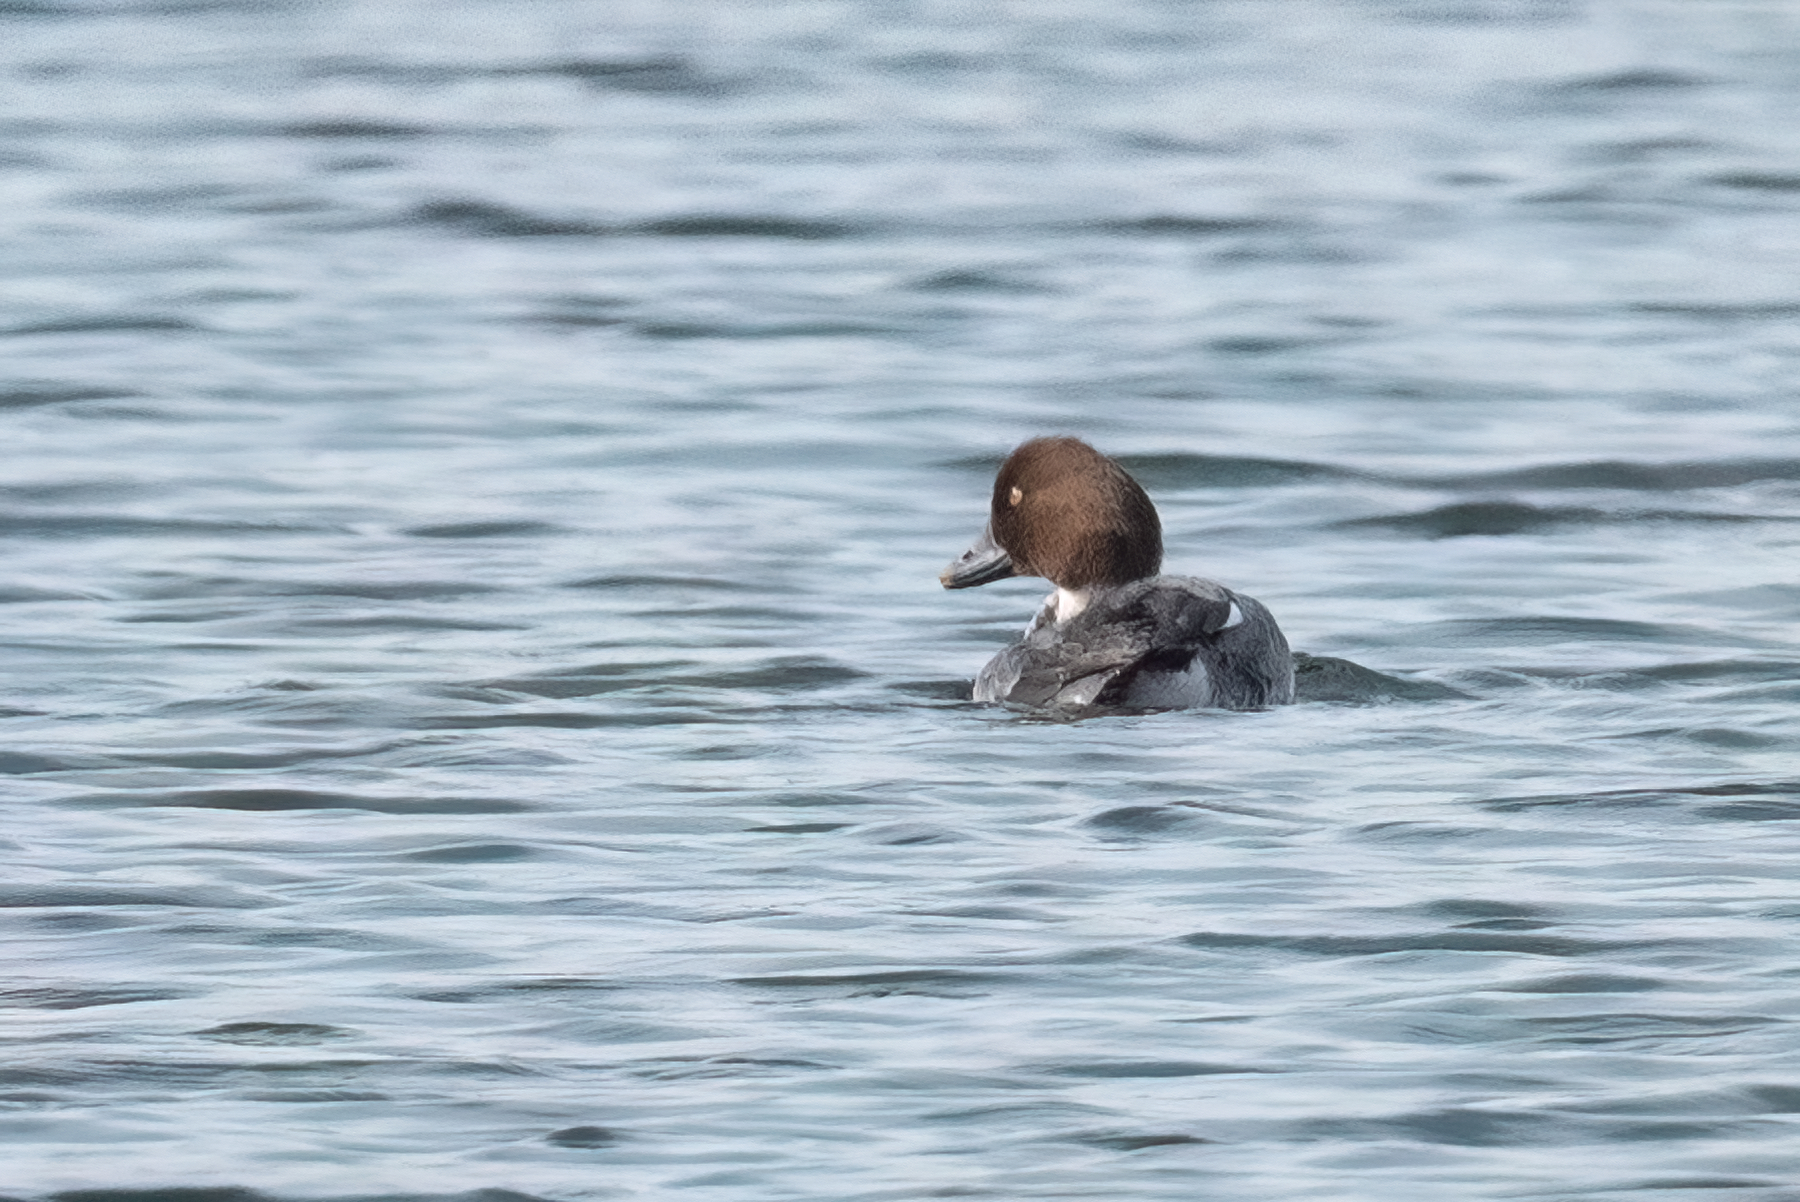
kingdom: Animalia
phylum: Chordata
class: Aves
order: Anseriformes
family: Anatidae
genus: Bucephala
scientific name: Bucephala clangula
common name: Common goldeneye
